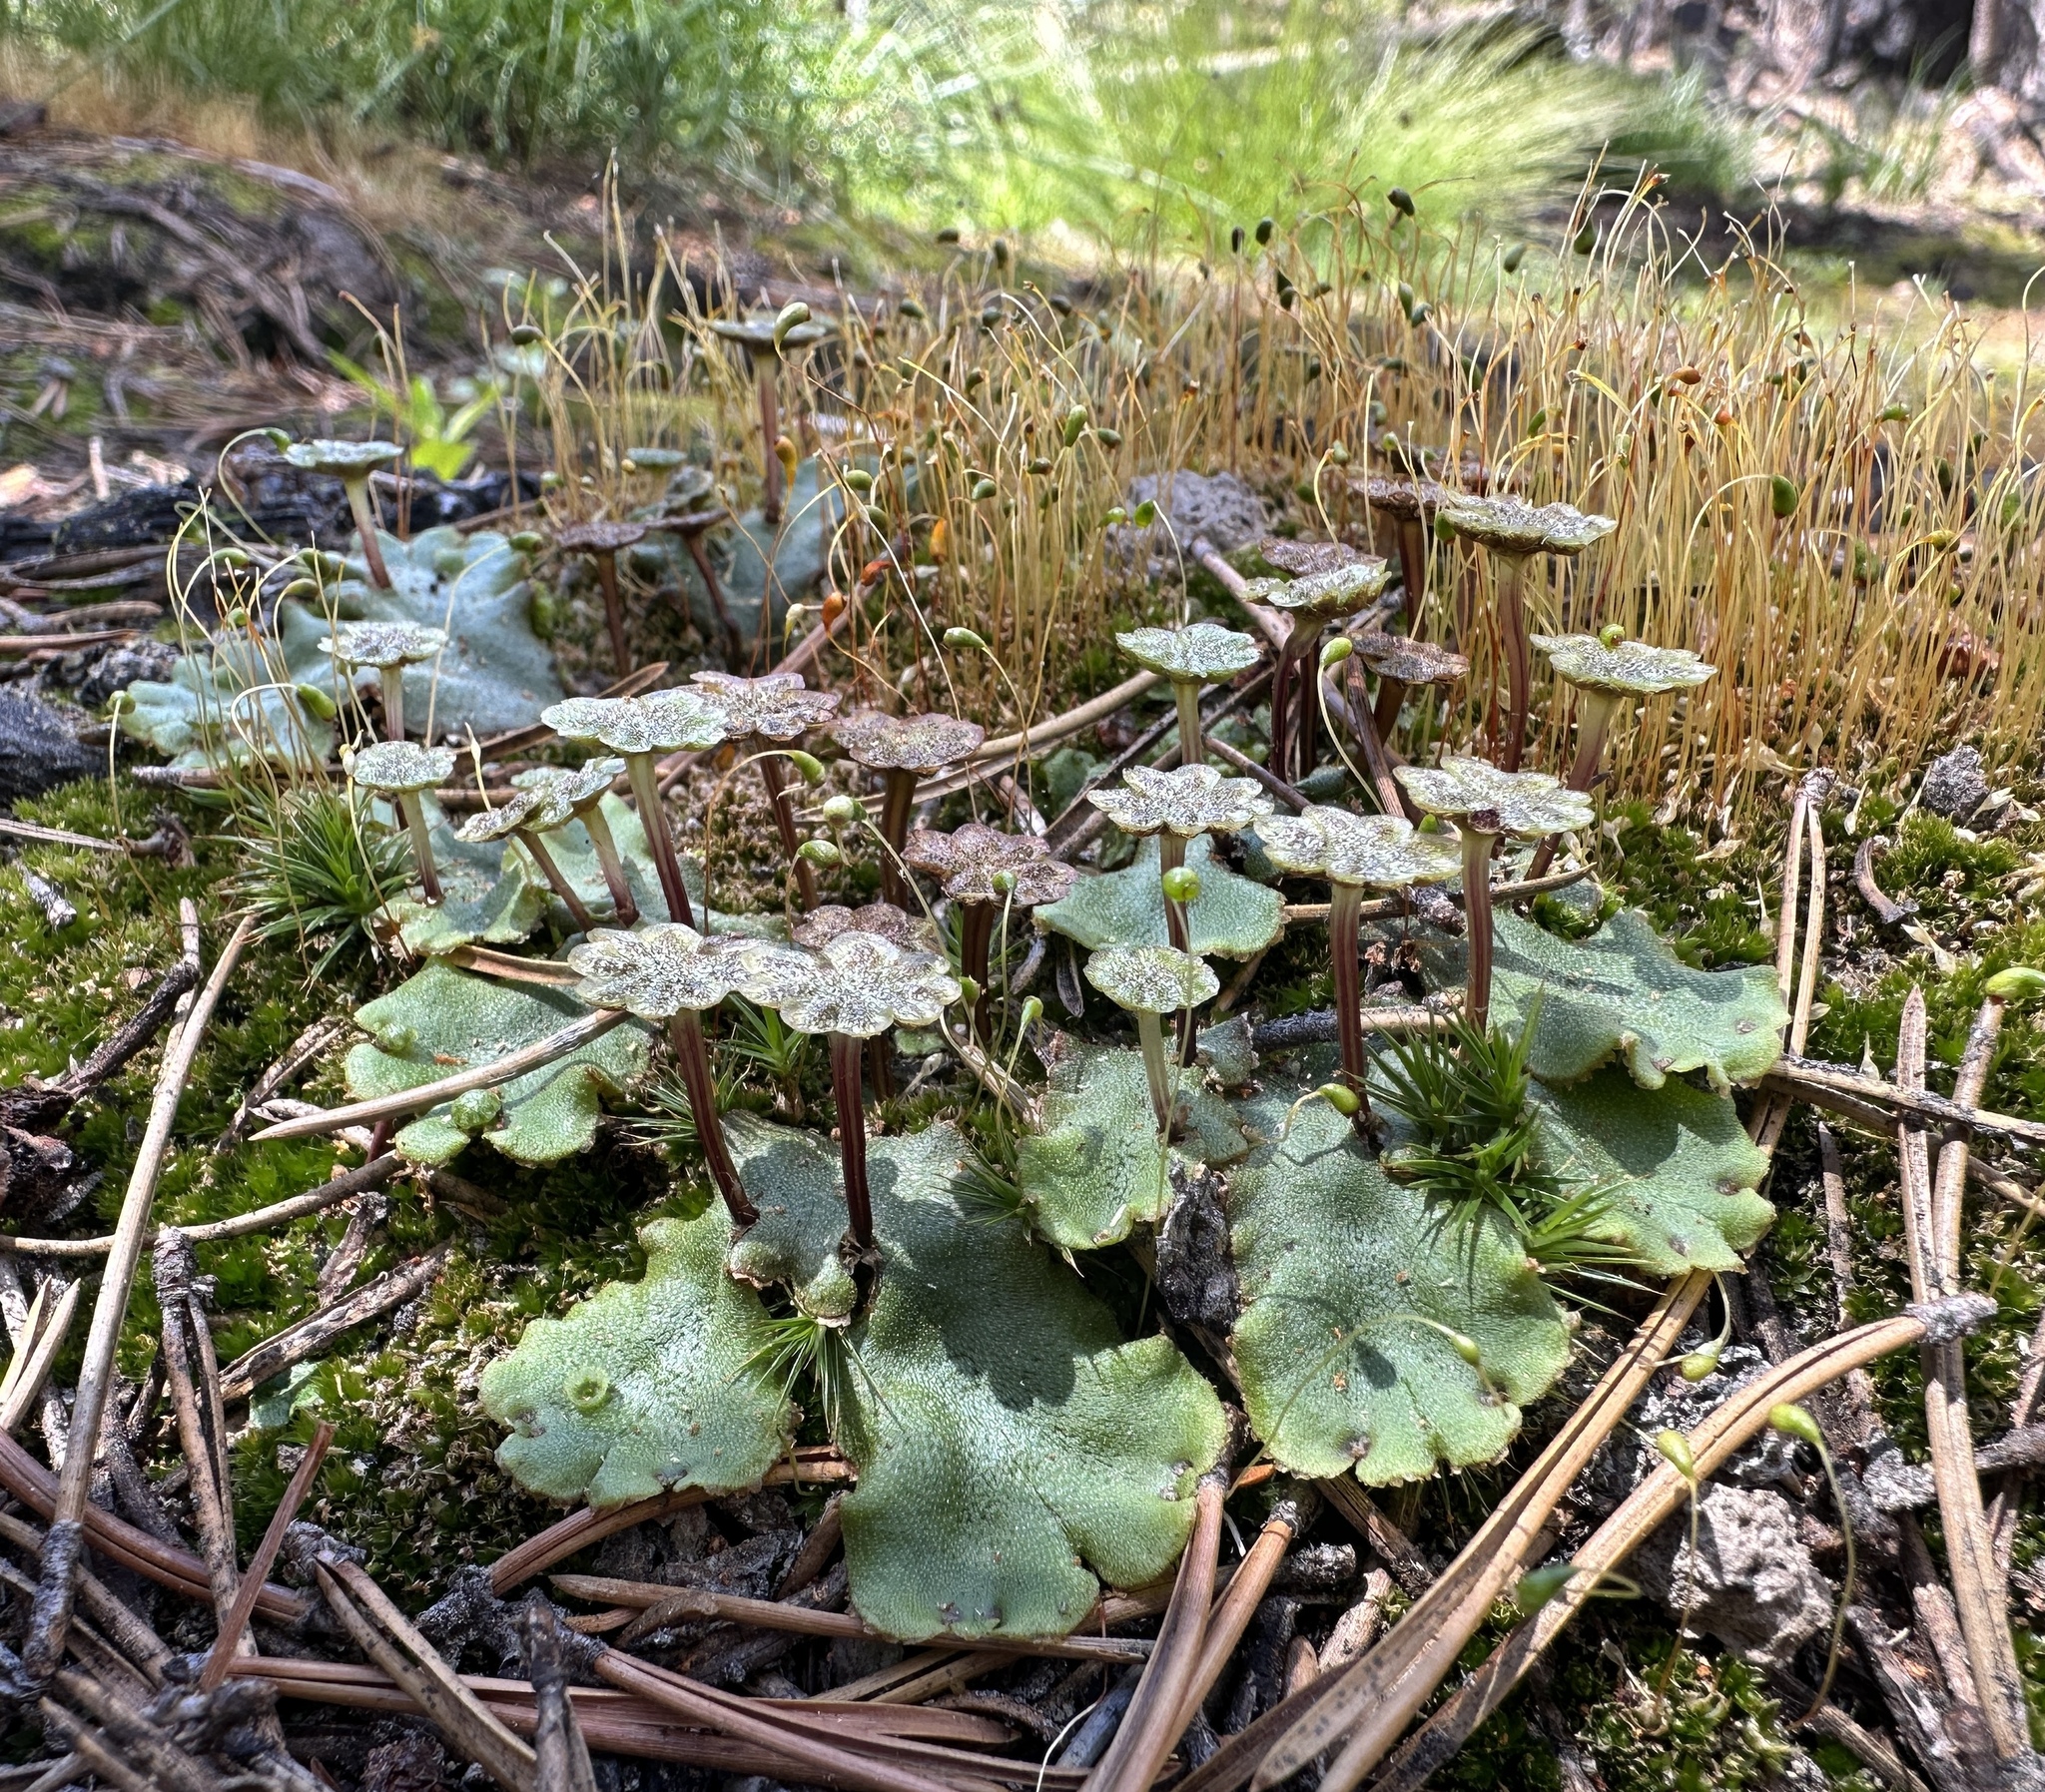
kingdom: Plantae
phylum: Marchantiophyta
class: Marchantiopsida
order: Marchantiales
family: Marchantiaceae
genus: Marchantia
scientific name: Marchantia polymorpha
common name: Common liverwort
